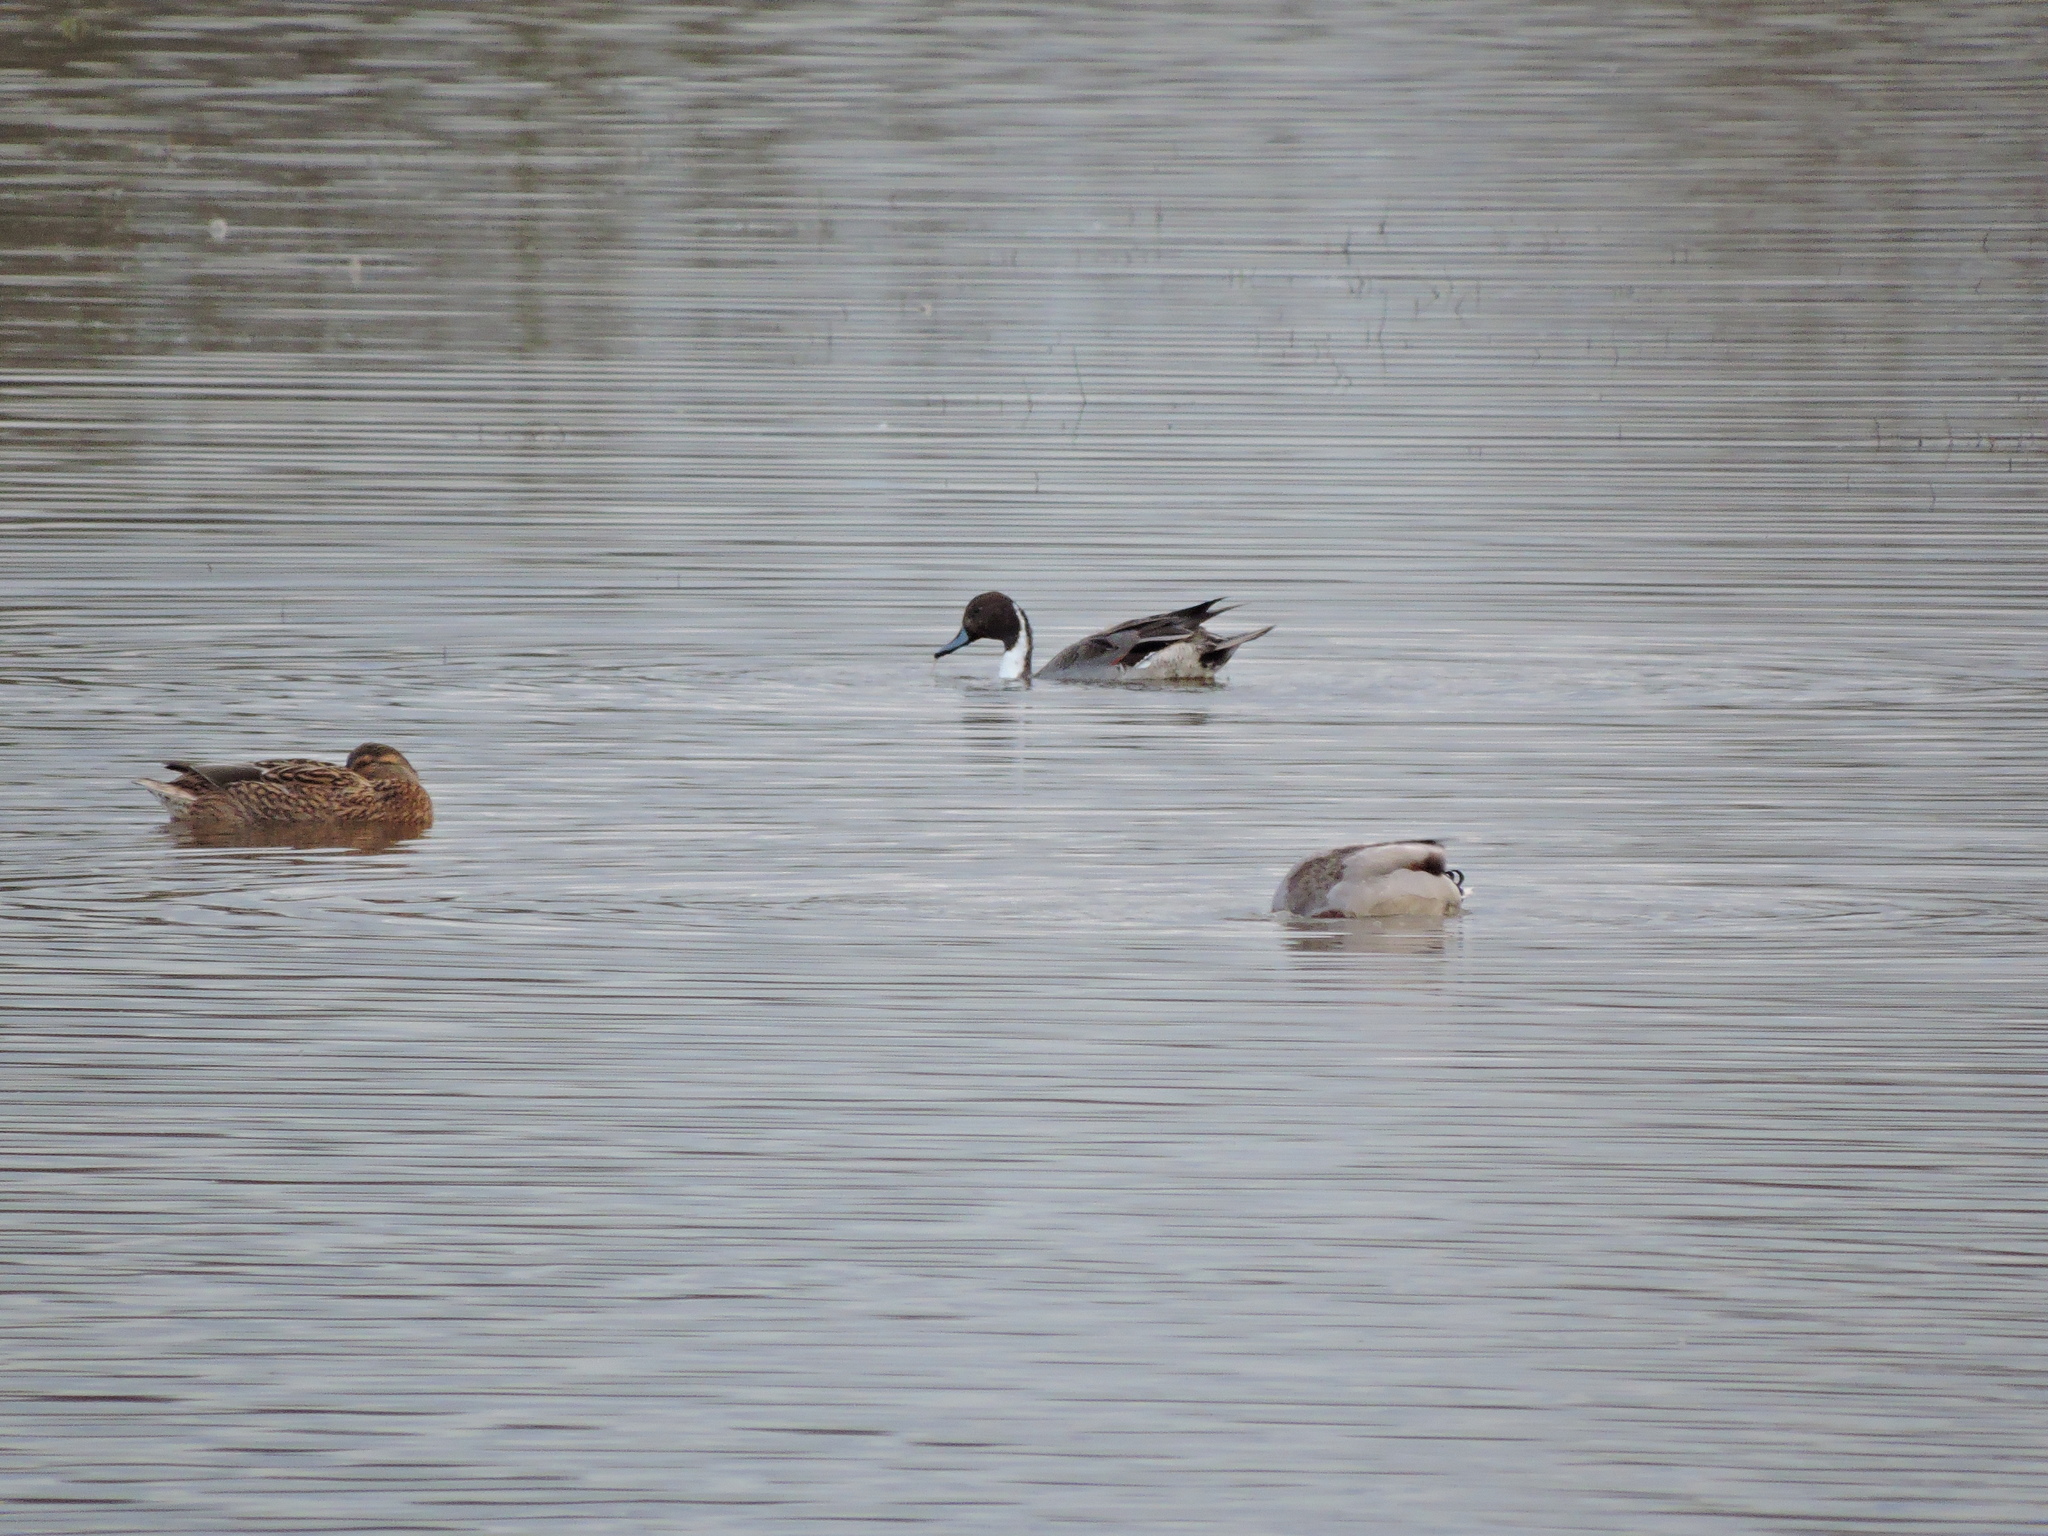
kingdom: Animalia
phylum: Chordata
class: Aves
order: Anseriformes
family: Anatidae
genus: Anas
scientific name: Anas acuta
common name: Northern pintail
